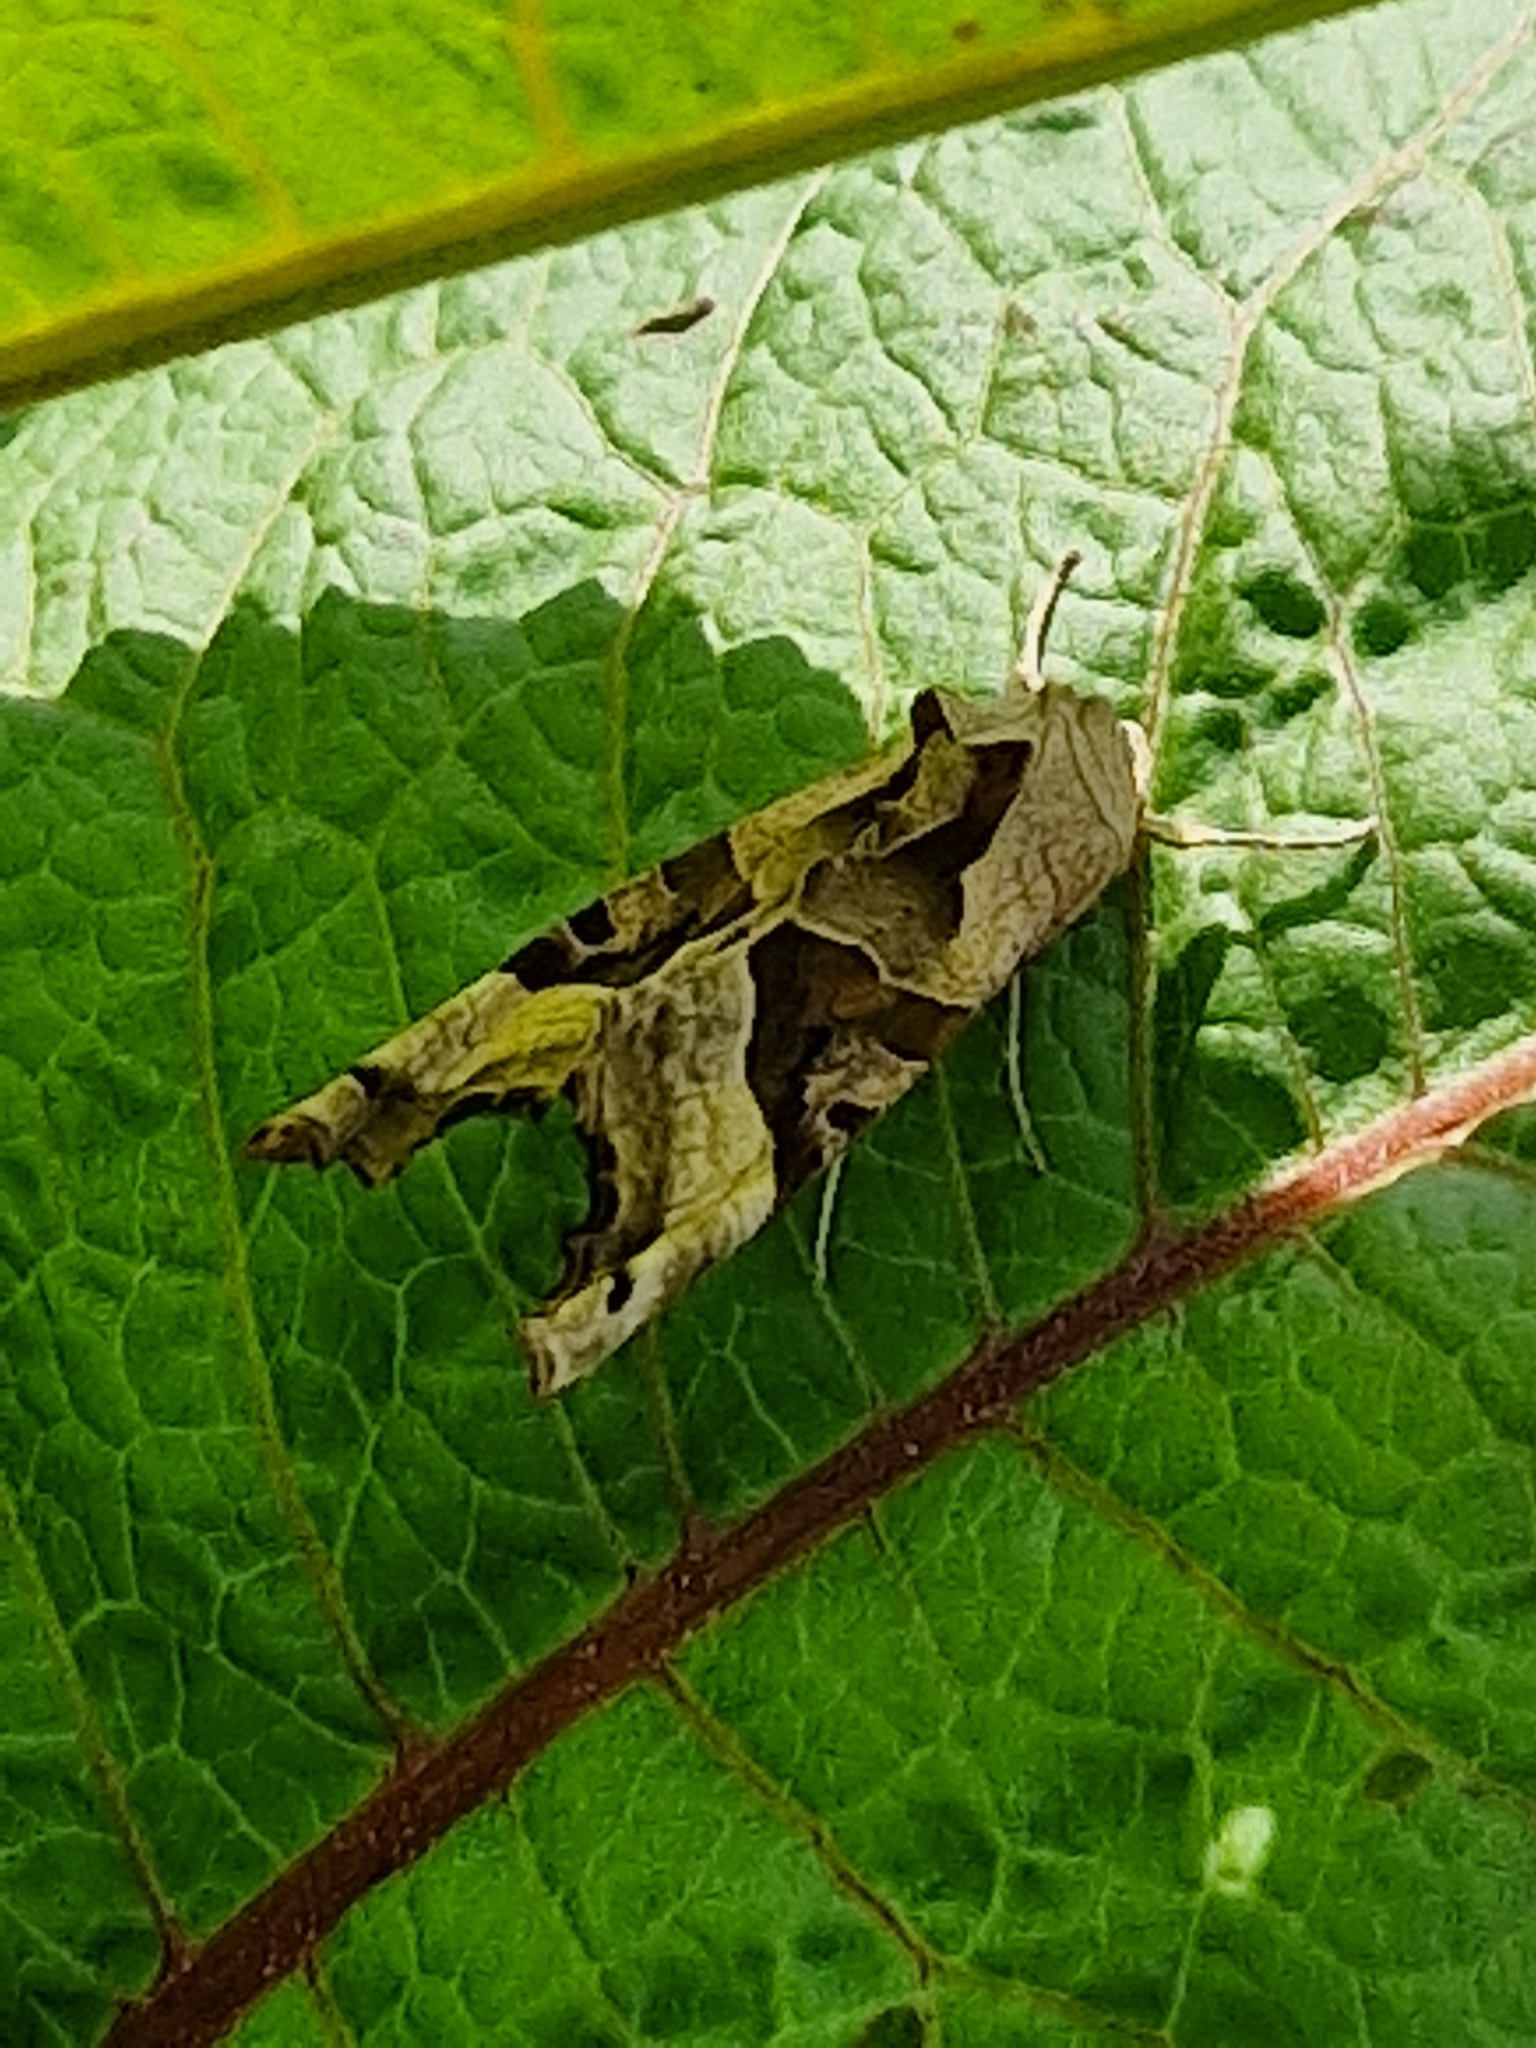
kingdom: Animalia
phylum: Arthropoda
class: Insecta
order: Lepidoptera
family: Noctuidae
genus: Phlogophora
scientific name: Phlogophora meticulosa
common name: Angle shades
